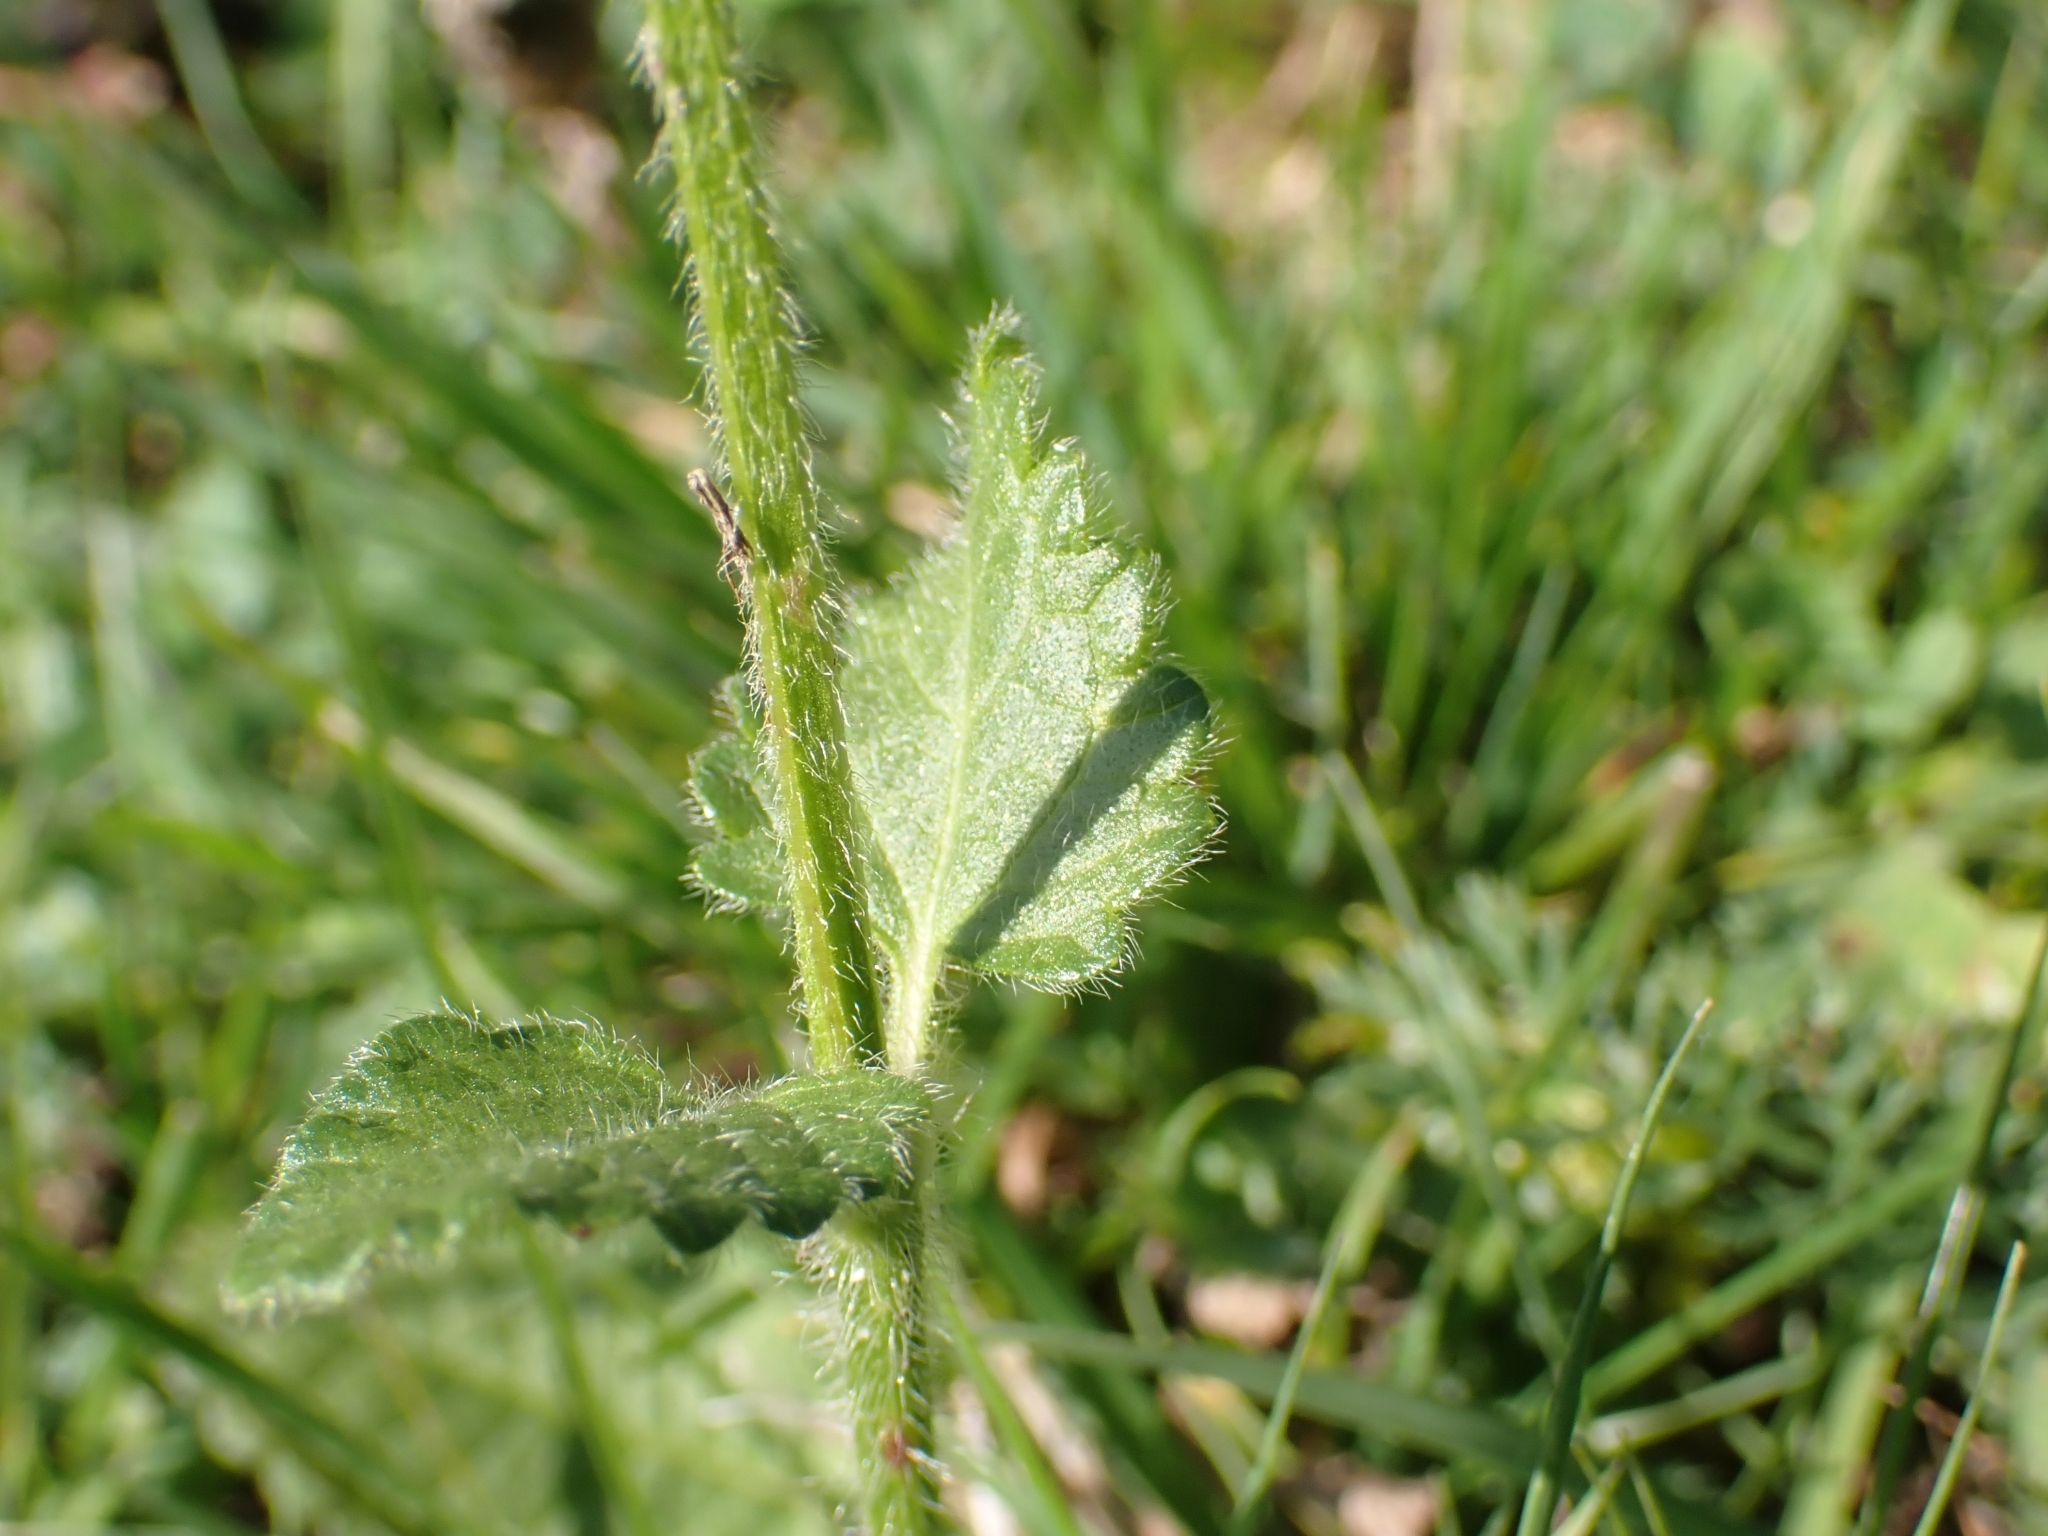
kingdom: Plantae
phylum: Tracheophyta
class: Magnoliopsida
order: Lamiales
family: Lamiaceae
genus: Betonica
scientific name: Betonica officinalis
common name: Bishop's-wort
